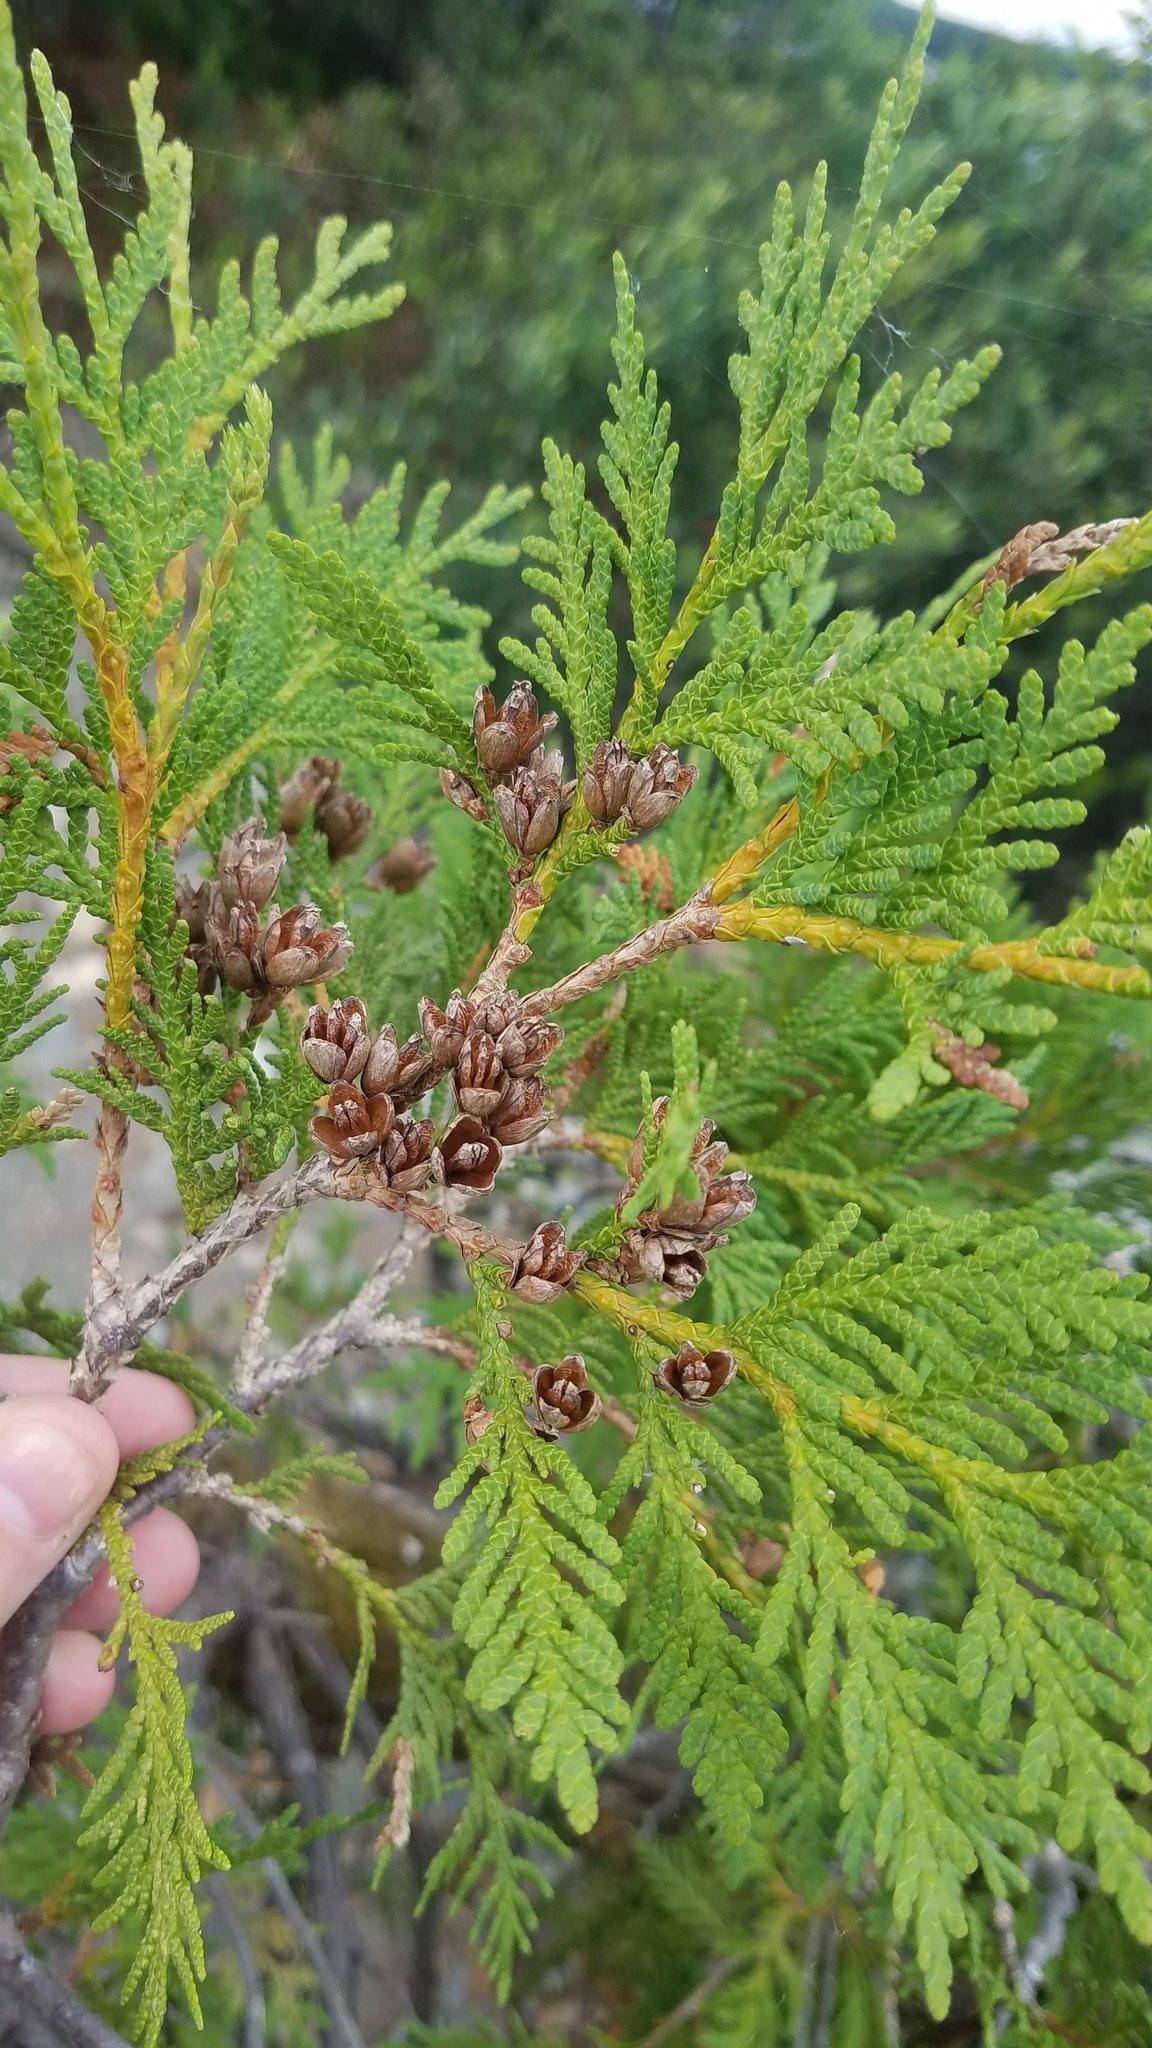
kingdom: Plantae
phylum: Tracheophyta
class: Pinopsida
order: Pinales
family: Cupressaceae
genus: Thuja
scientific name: Thuja occidentalis
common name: Northern white-cedar
